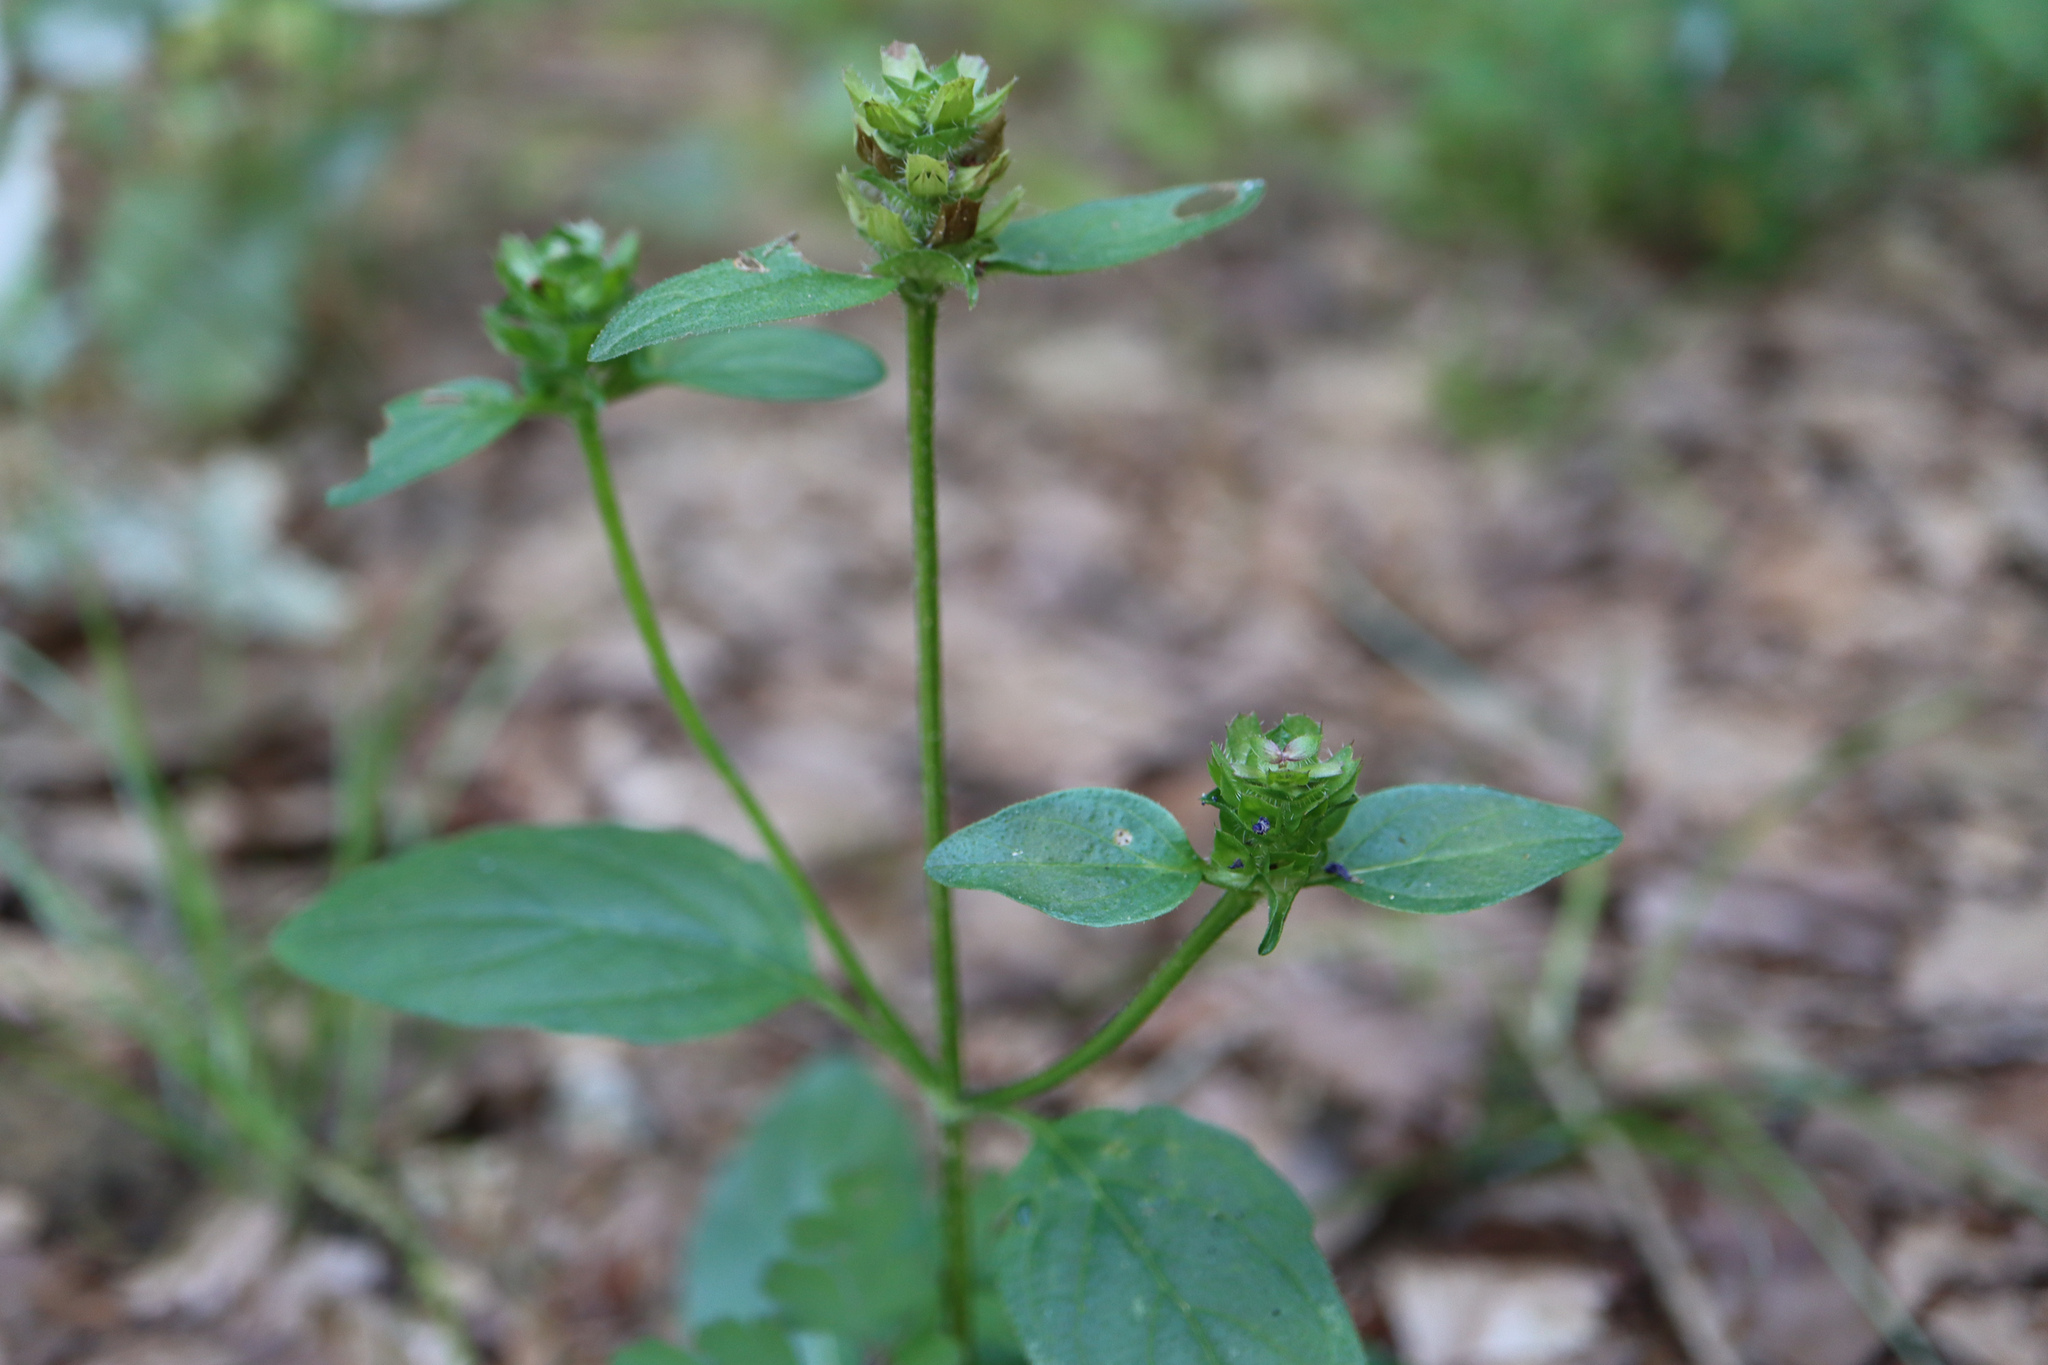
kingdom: Plantae
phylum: Tracheophyta
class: Magnoliopsida
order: Lamiales
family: Lamiaceae
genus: Prunella
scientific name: Prunella vulgaris
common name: Heal-all
